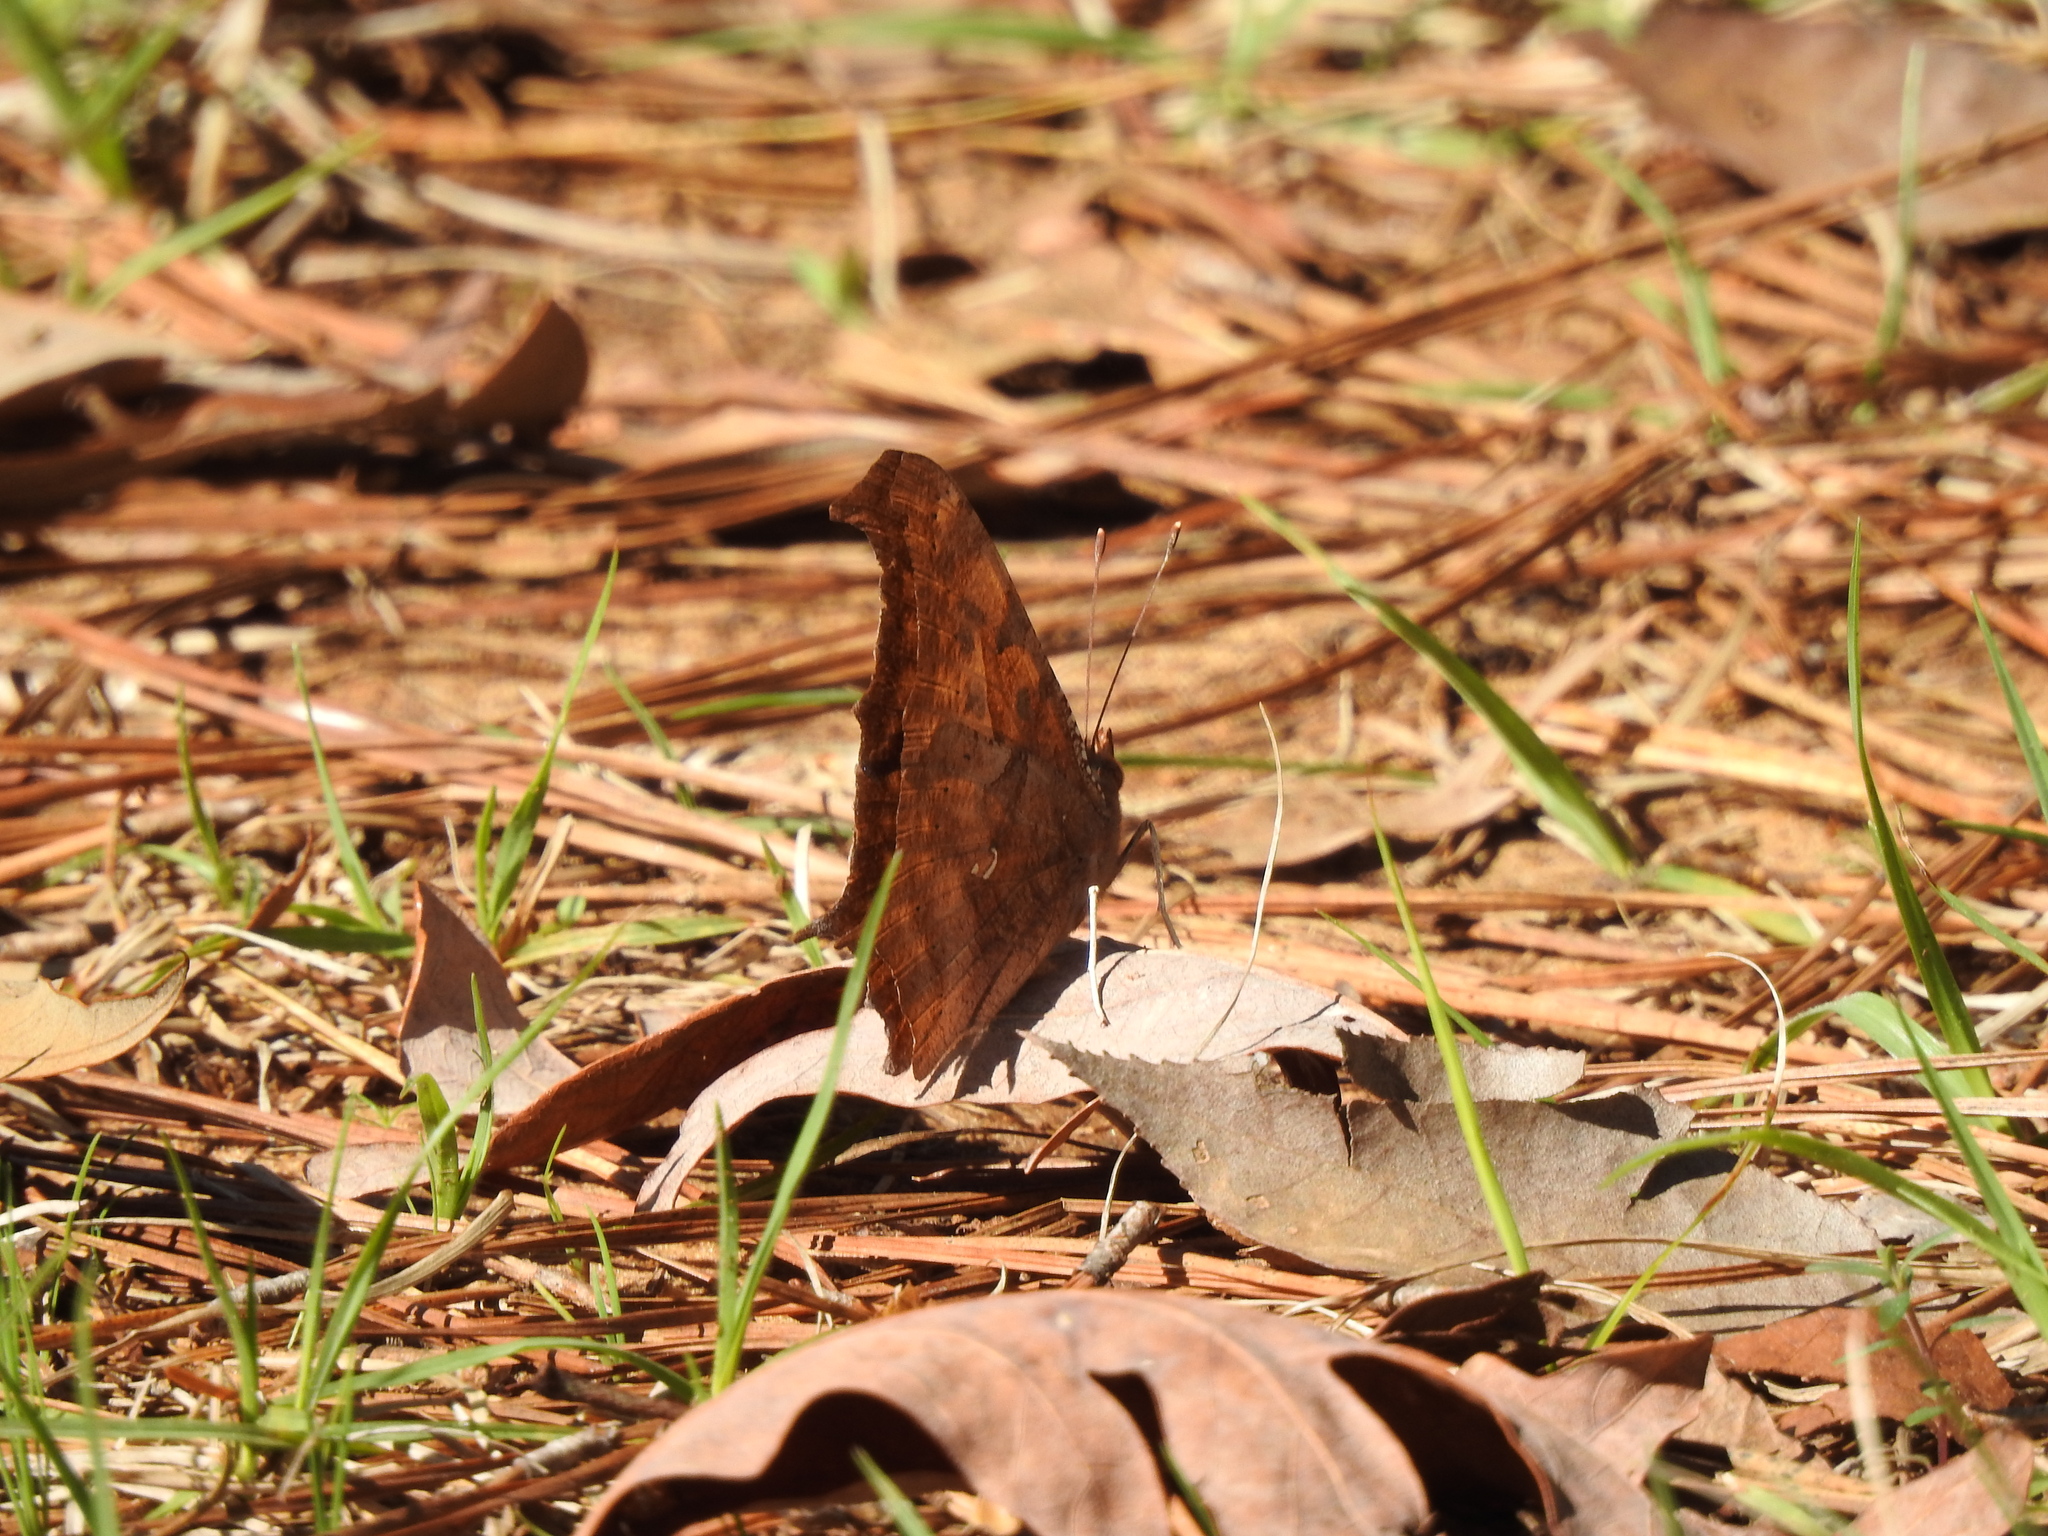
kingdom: Animalia
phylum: Arthropoda
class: Insecta
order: Lepidoptera
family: Nymphalidae
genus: Polygonia
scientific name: Polygonia interrogationis
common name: Question mark
